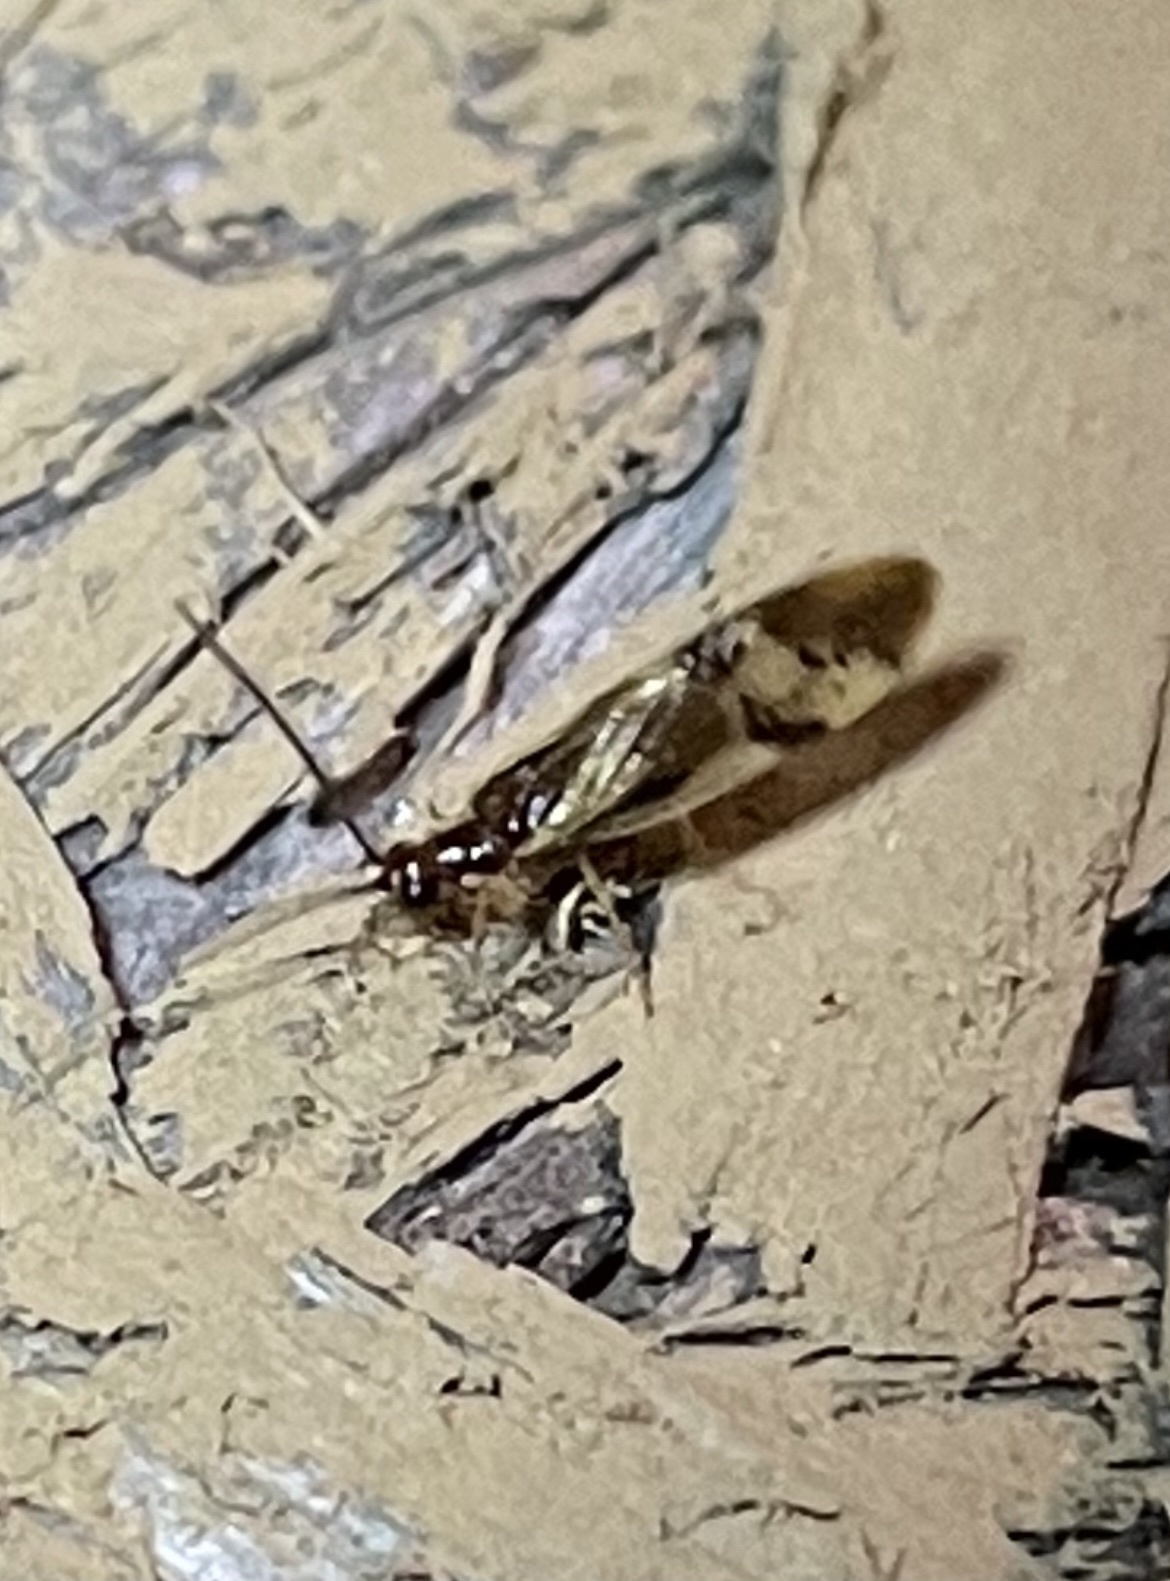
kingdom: Animalia
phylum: Arthropoda
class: Insecta
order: Neuroptera
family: Sisyridae
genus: Climacia
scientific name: Climacia areolaris
